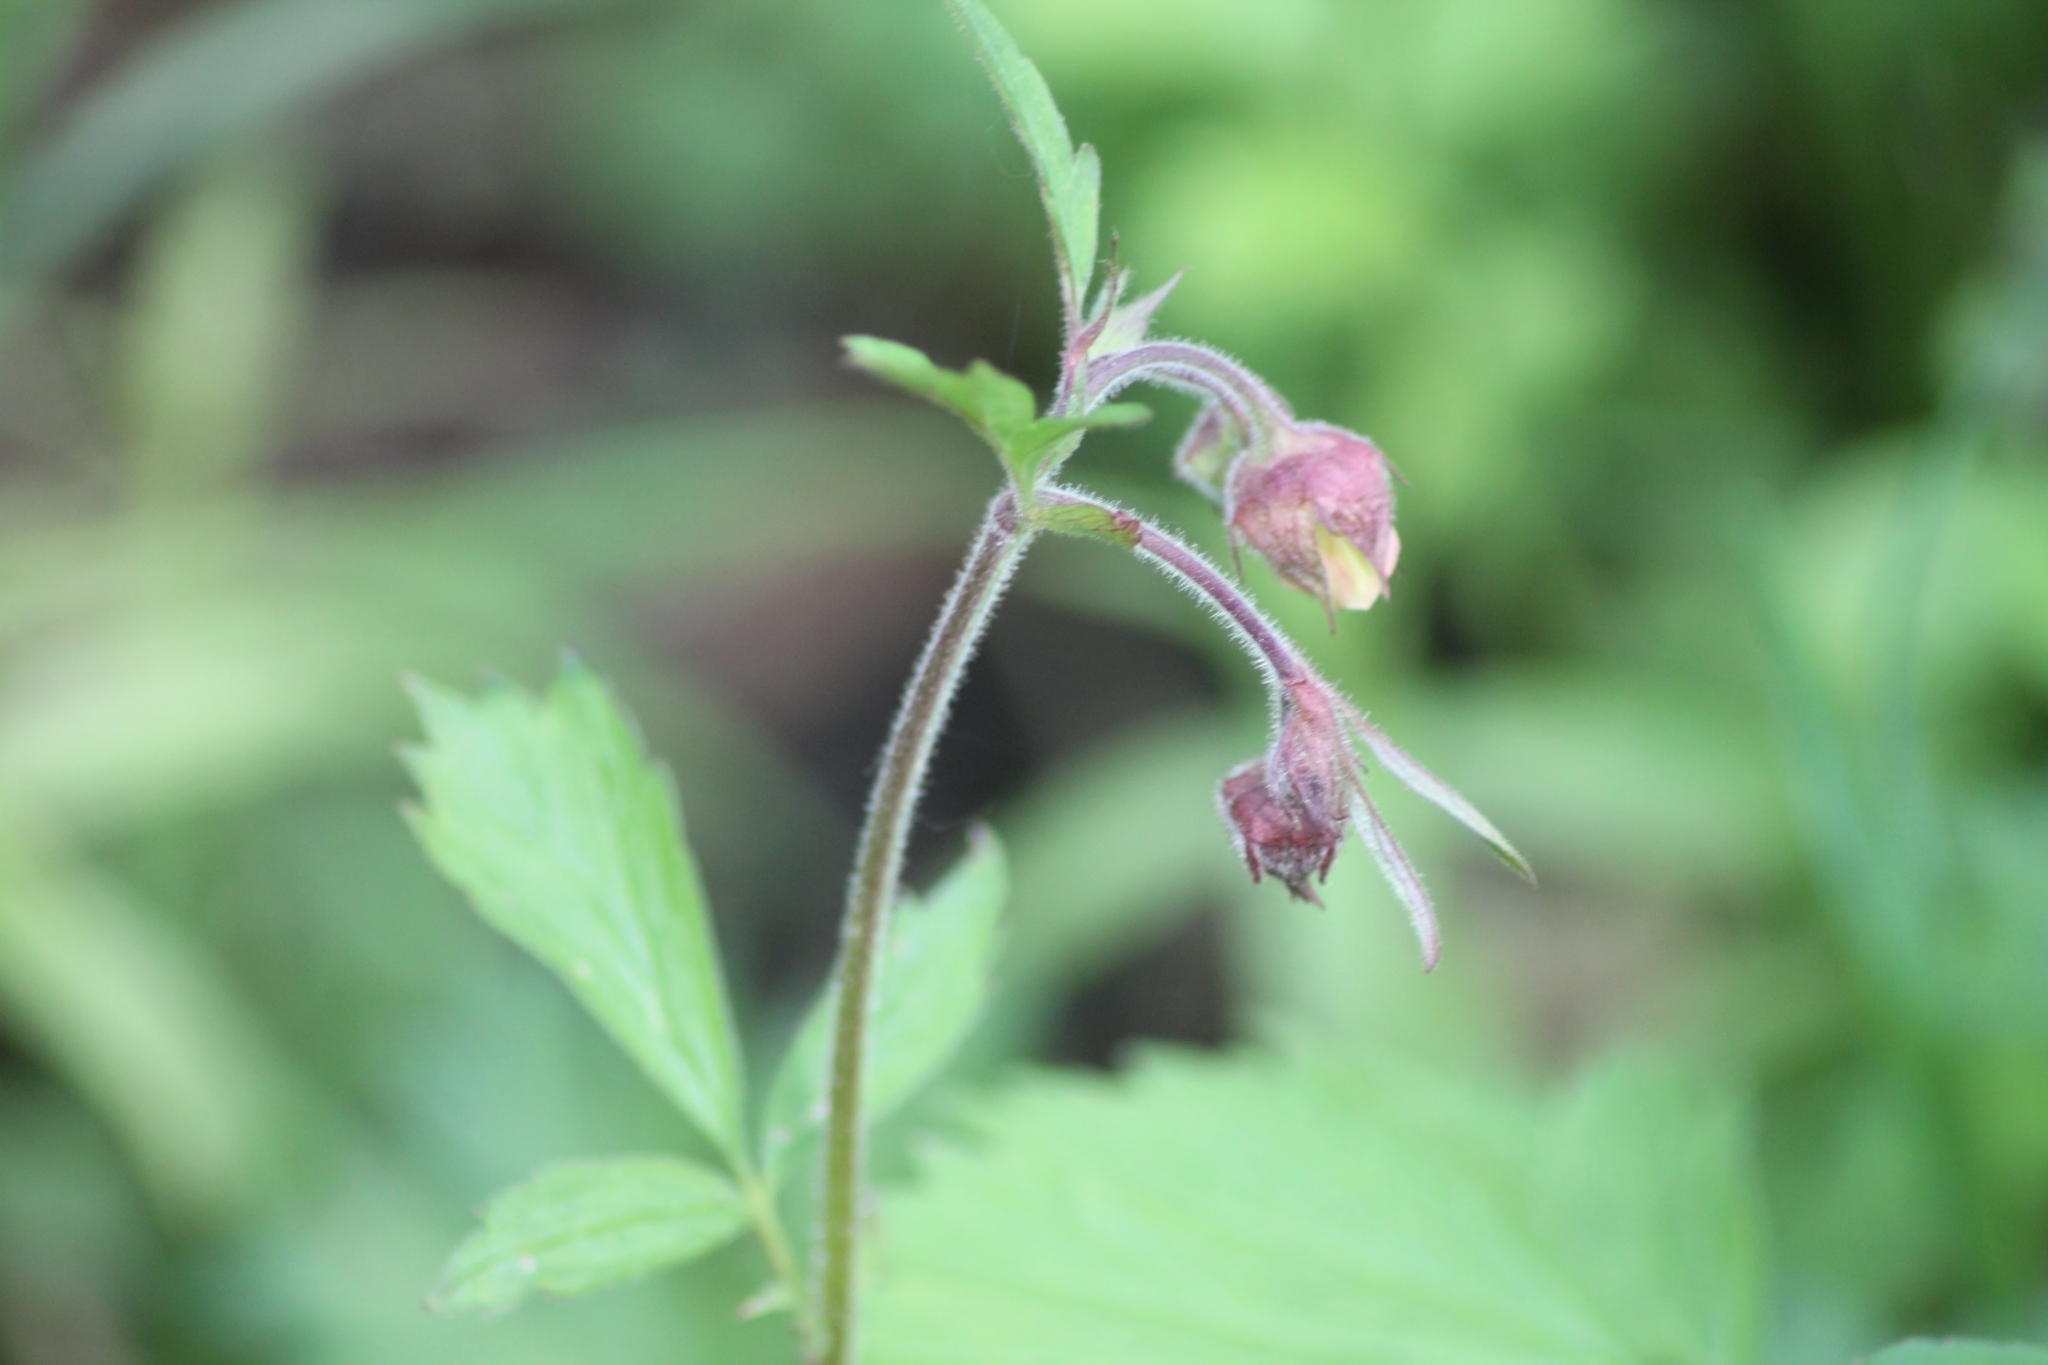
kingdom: Plantae
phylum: Tracheophyta
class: Magnoliopsida
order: Rosales
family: Rosaceae
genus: Geum
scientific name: Geum rivale
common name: Water avens
